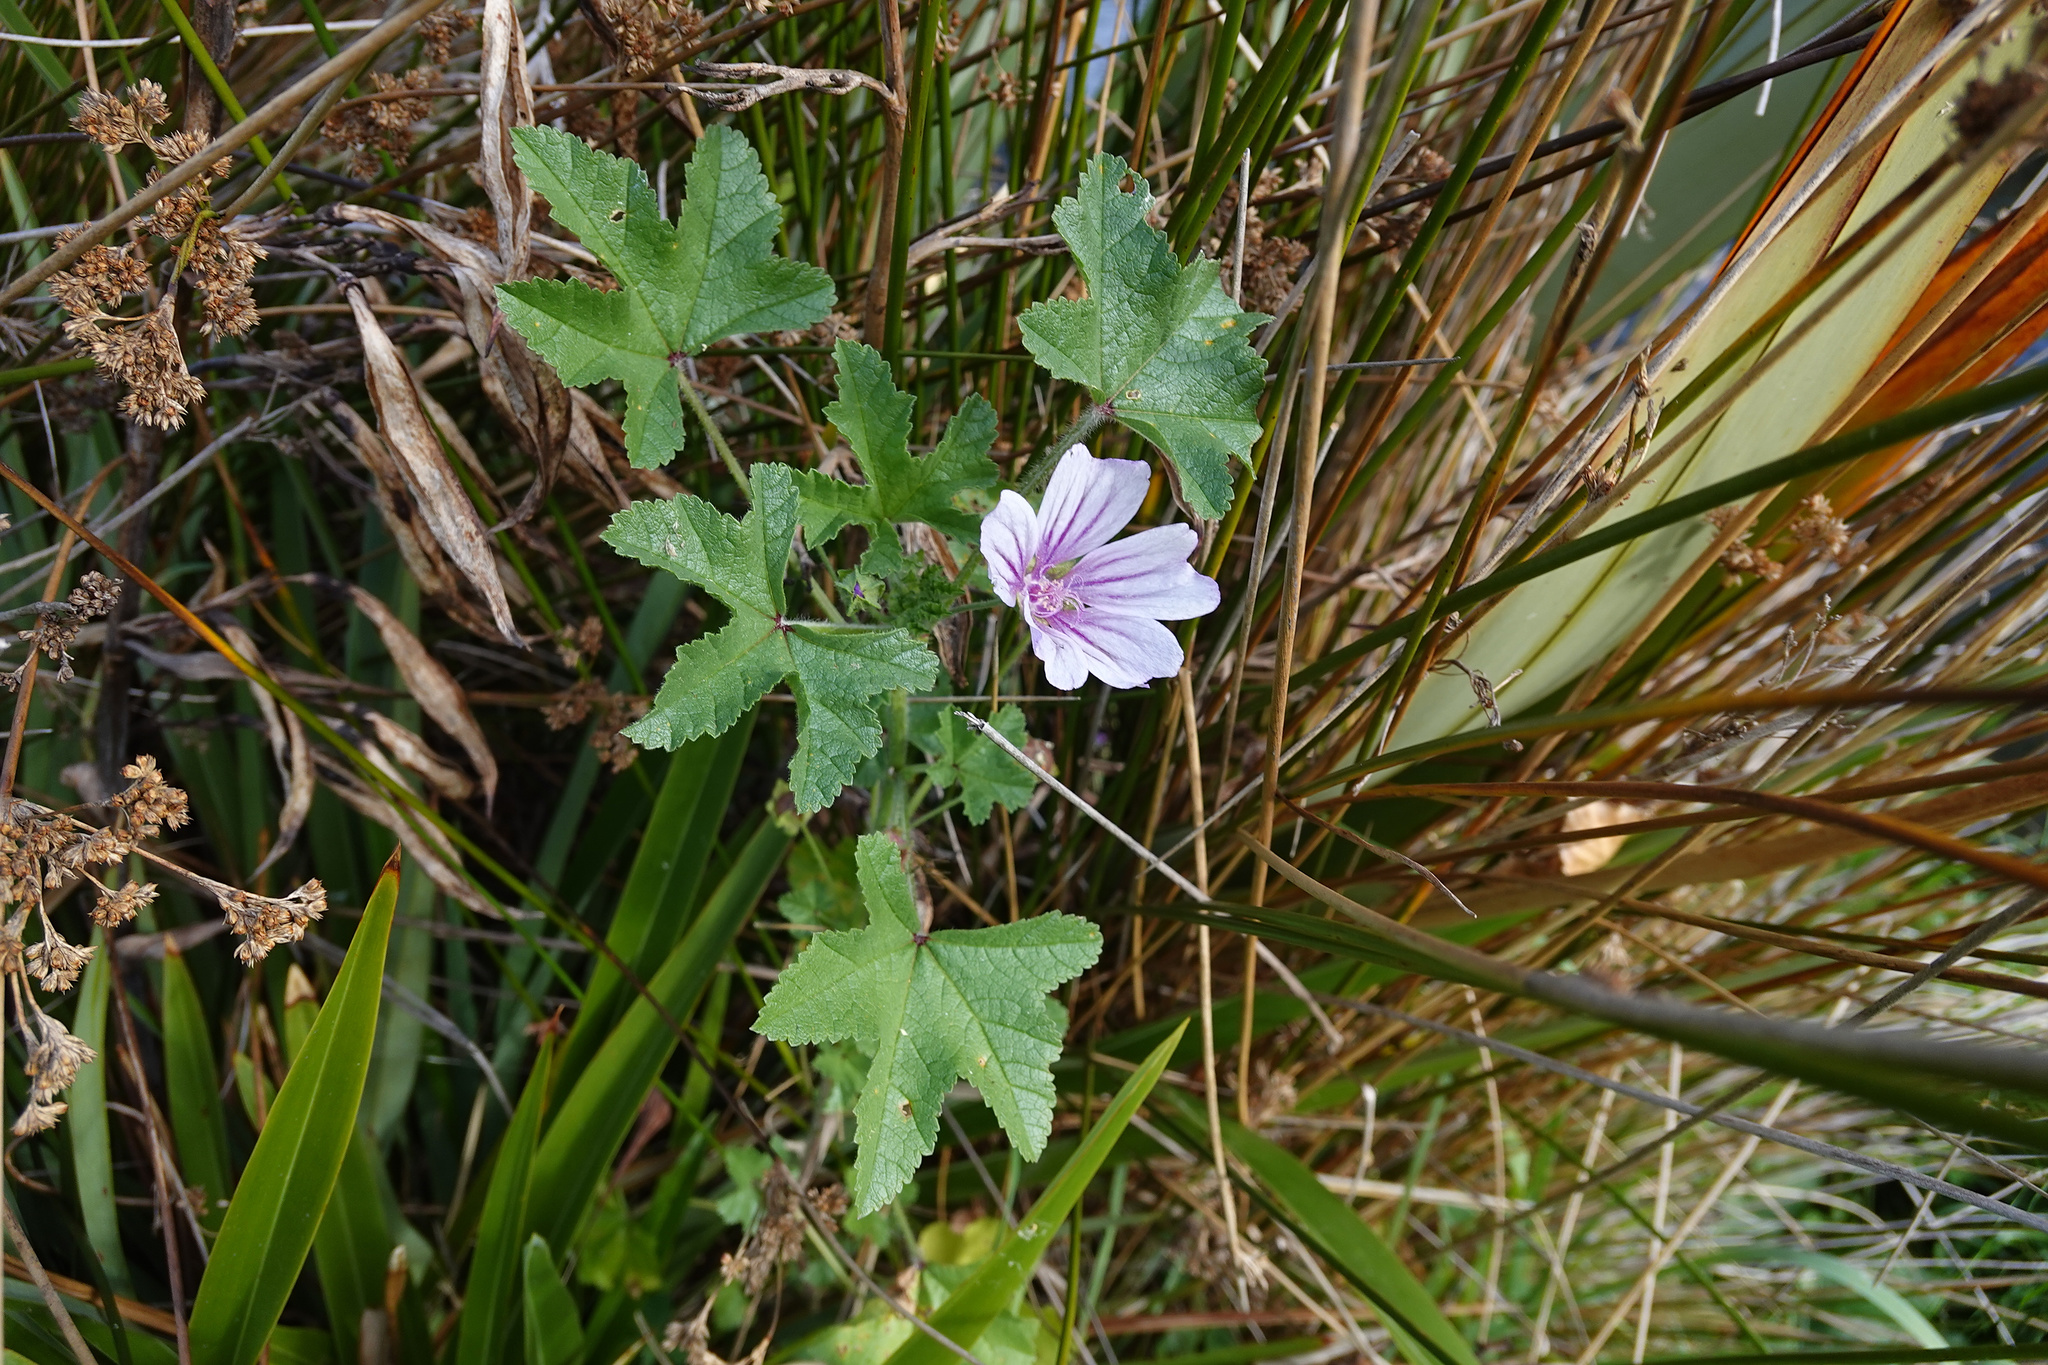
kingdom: Plantae
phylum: Tracheophyta
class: Magnoliopsida
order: Malvales
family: Malvaceae
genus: Malva
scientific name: Malva sylvestris
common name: Common mallow
